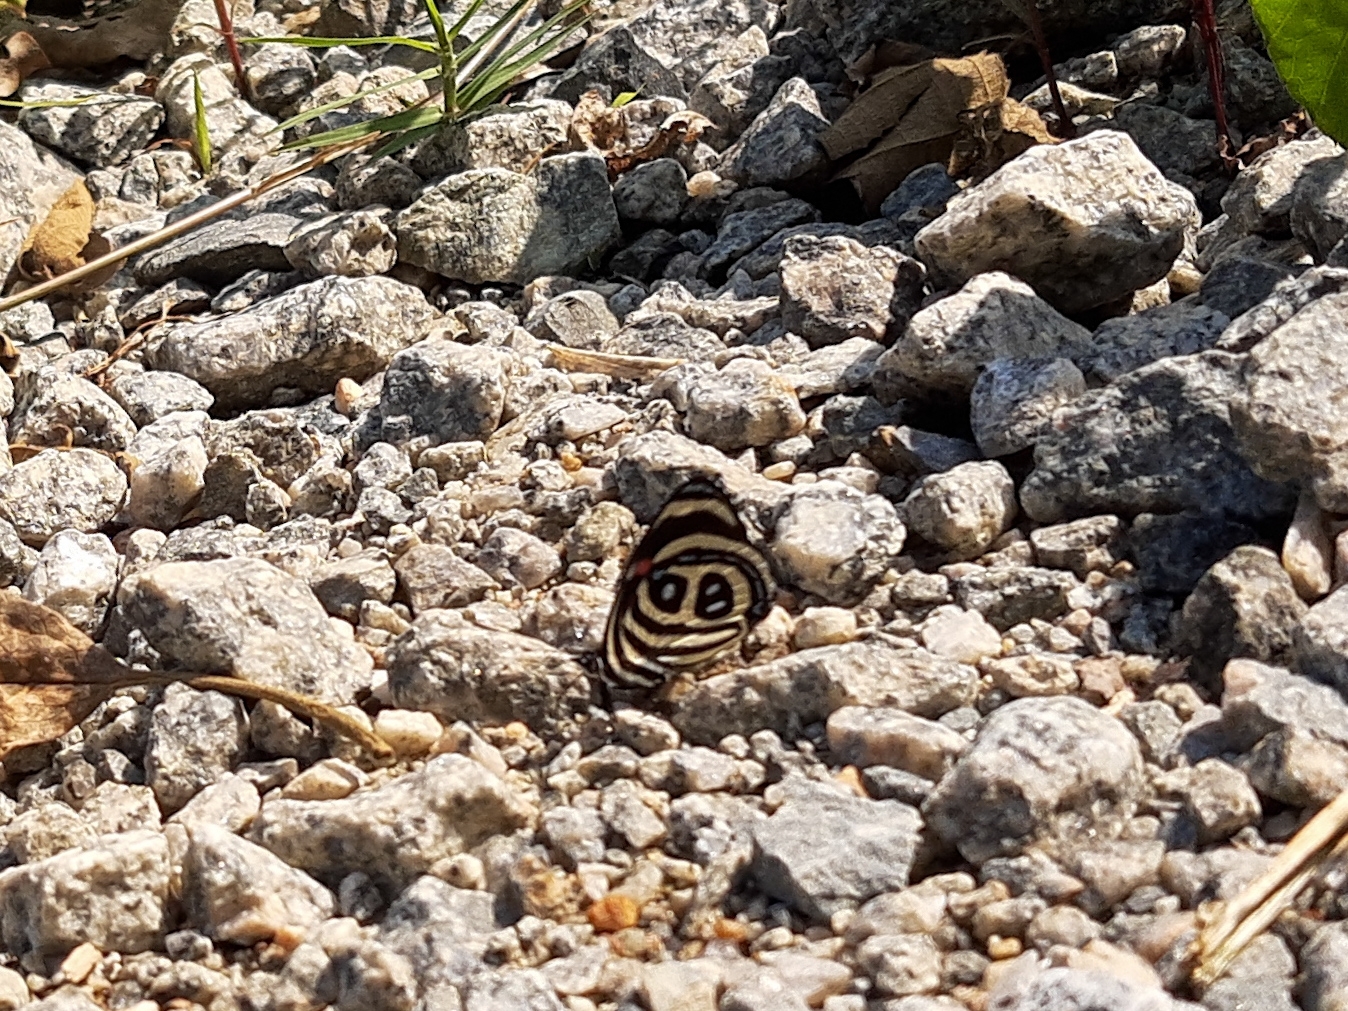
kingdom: Animalia
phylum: Arthropoda
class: Insecta
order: Lepidoptera
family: Nymphalidae
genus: Catagramma
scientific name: Catagramma pyracmon
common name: Google-eyed eighty-eight
